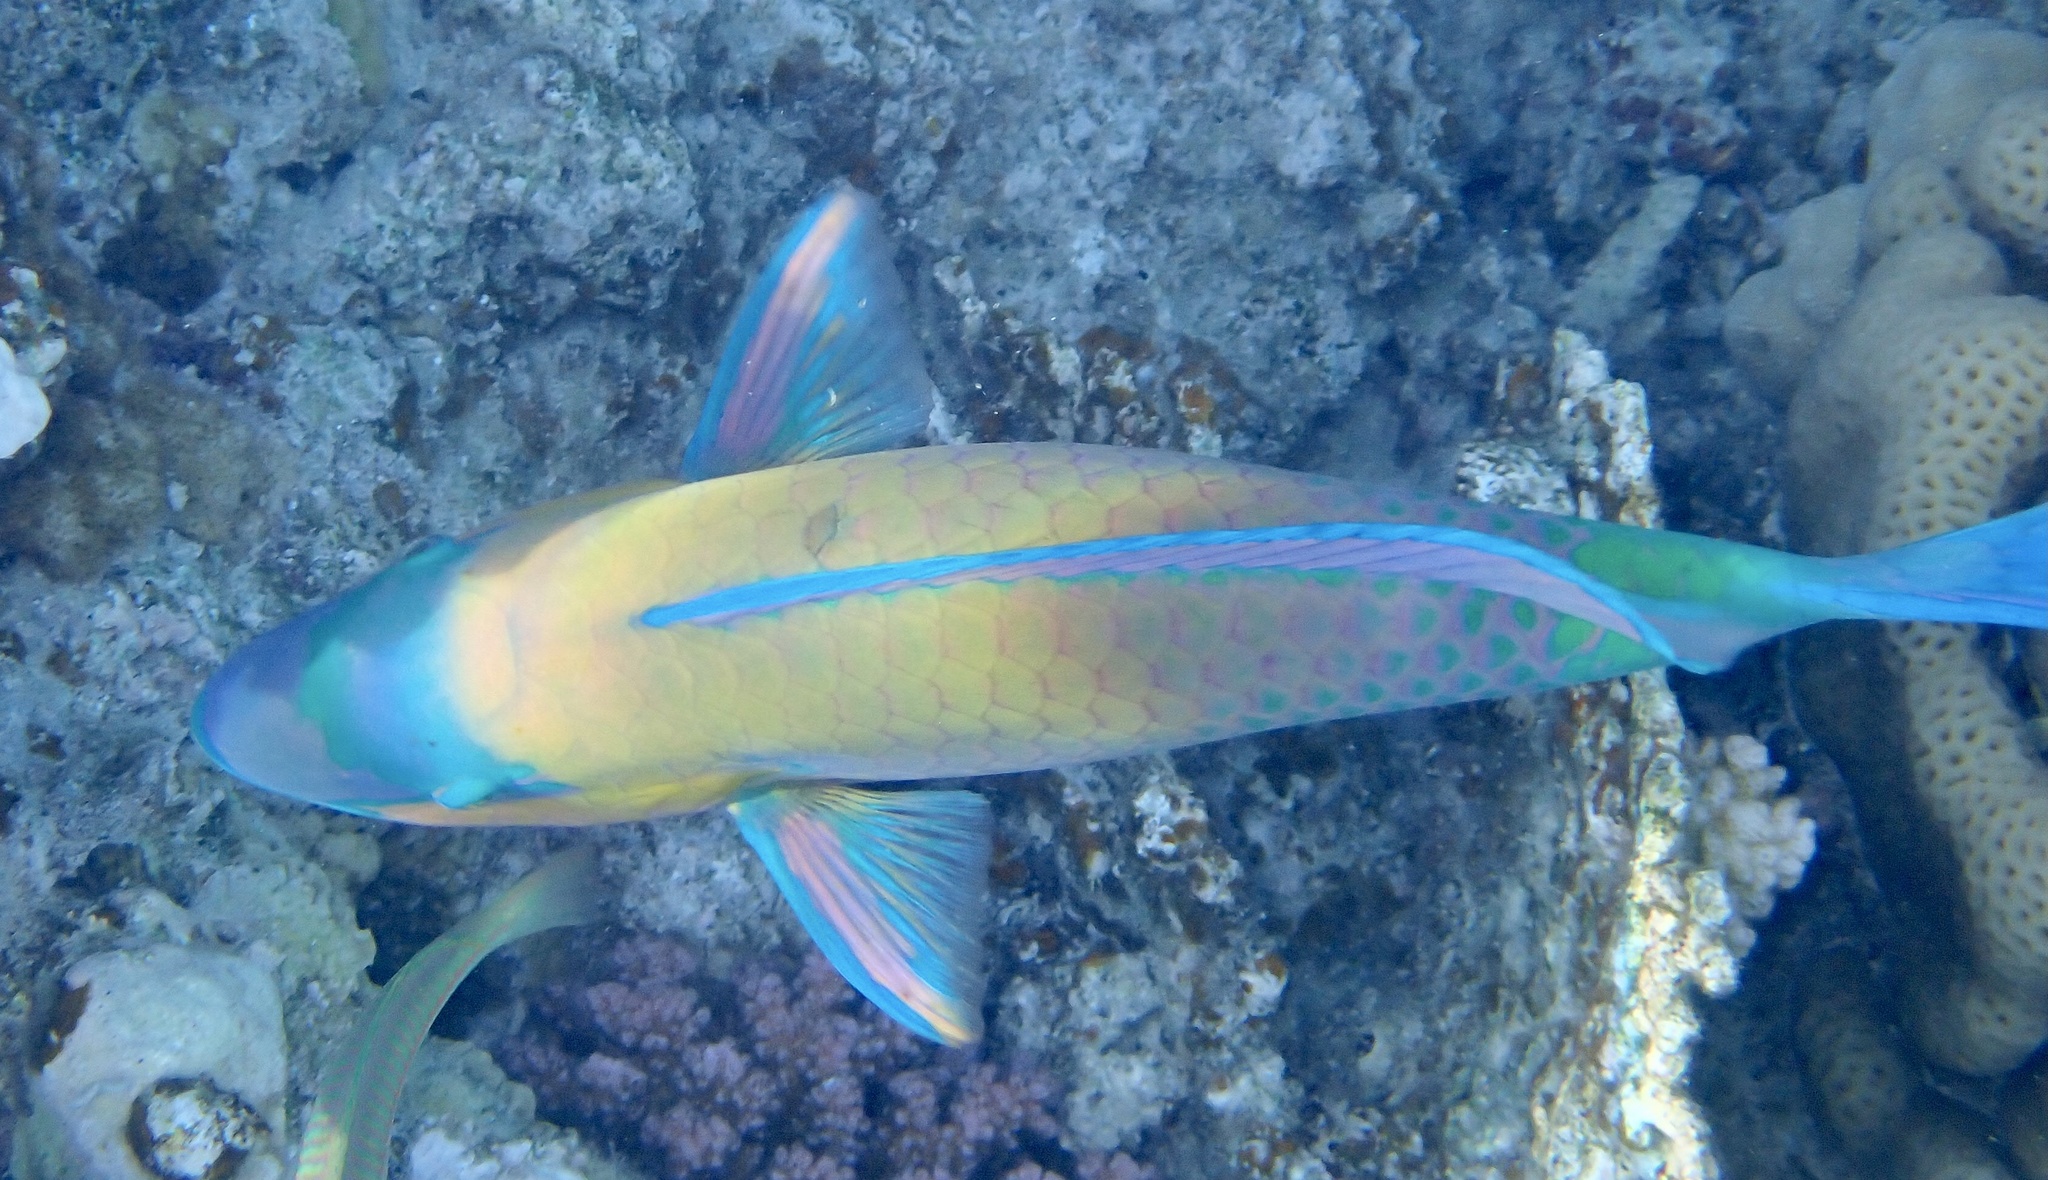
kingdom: Animalia
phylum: Chordata
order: Perciformes
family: Scaridae
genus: Chlorurus
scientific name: Chlorurus sordidus
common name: Bullethead parrotfish
